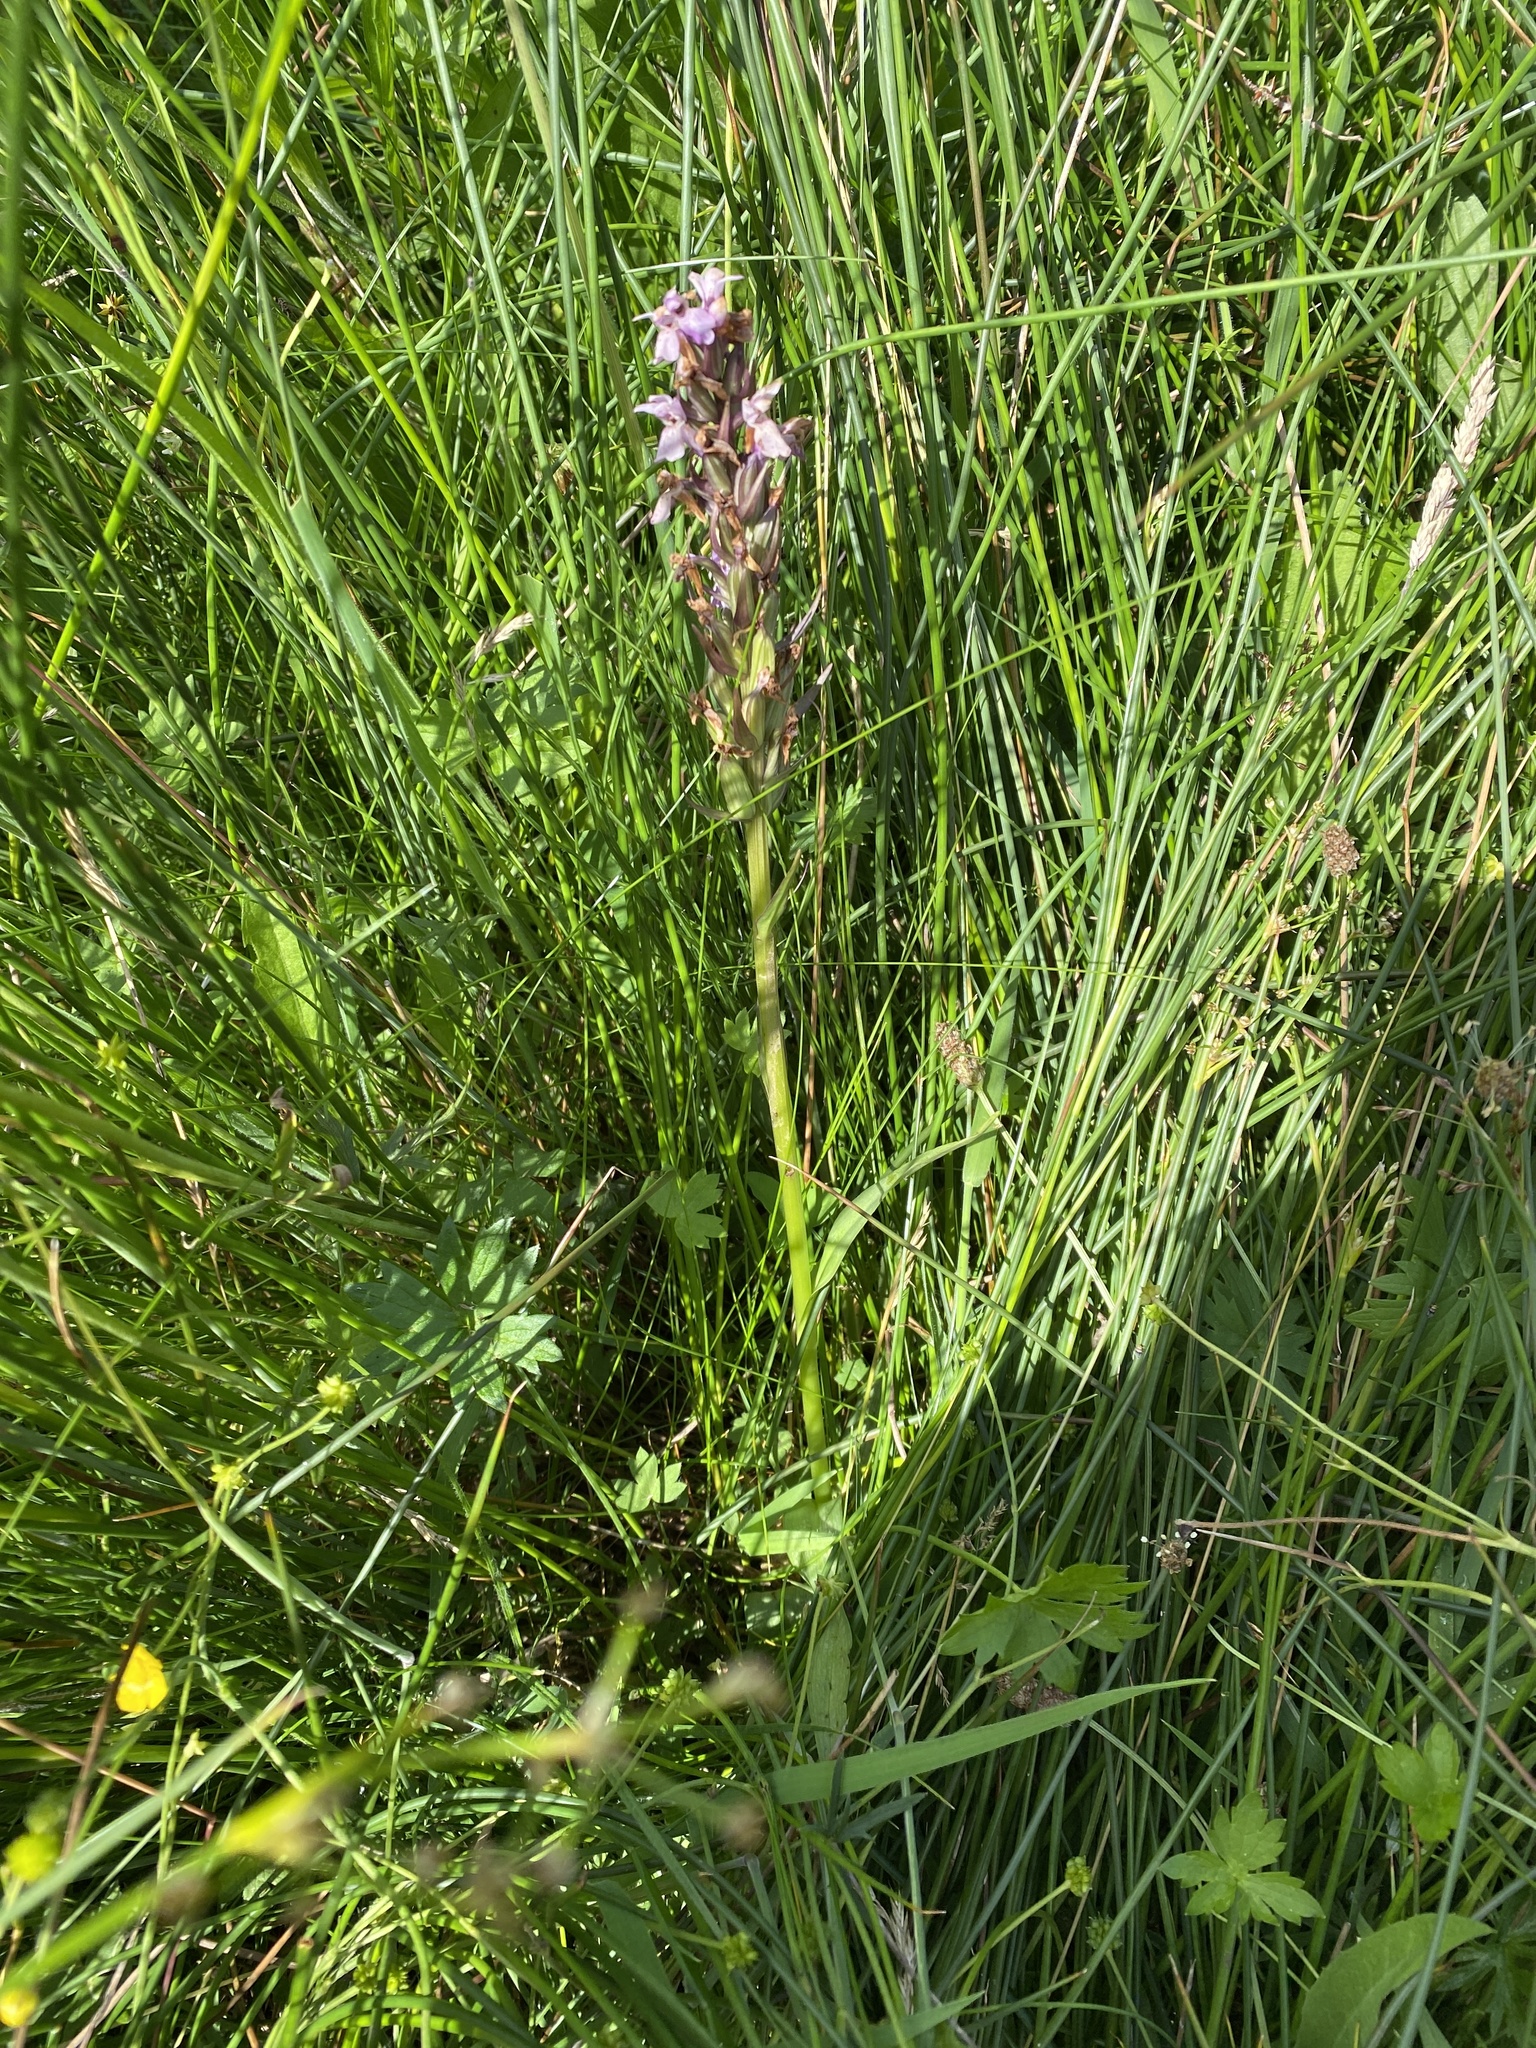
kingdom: Plantae
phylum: Tracheophyta
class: Liliopsida
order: Asparagales
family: Orchidaceae
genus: Dactylorhiza
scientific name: Dactylorhiza incarnata
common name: Early marsh-orchid
